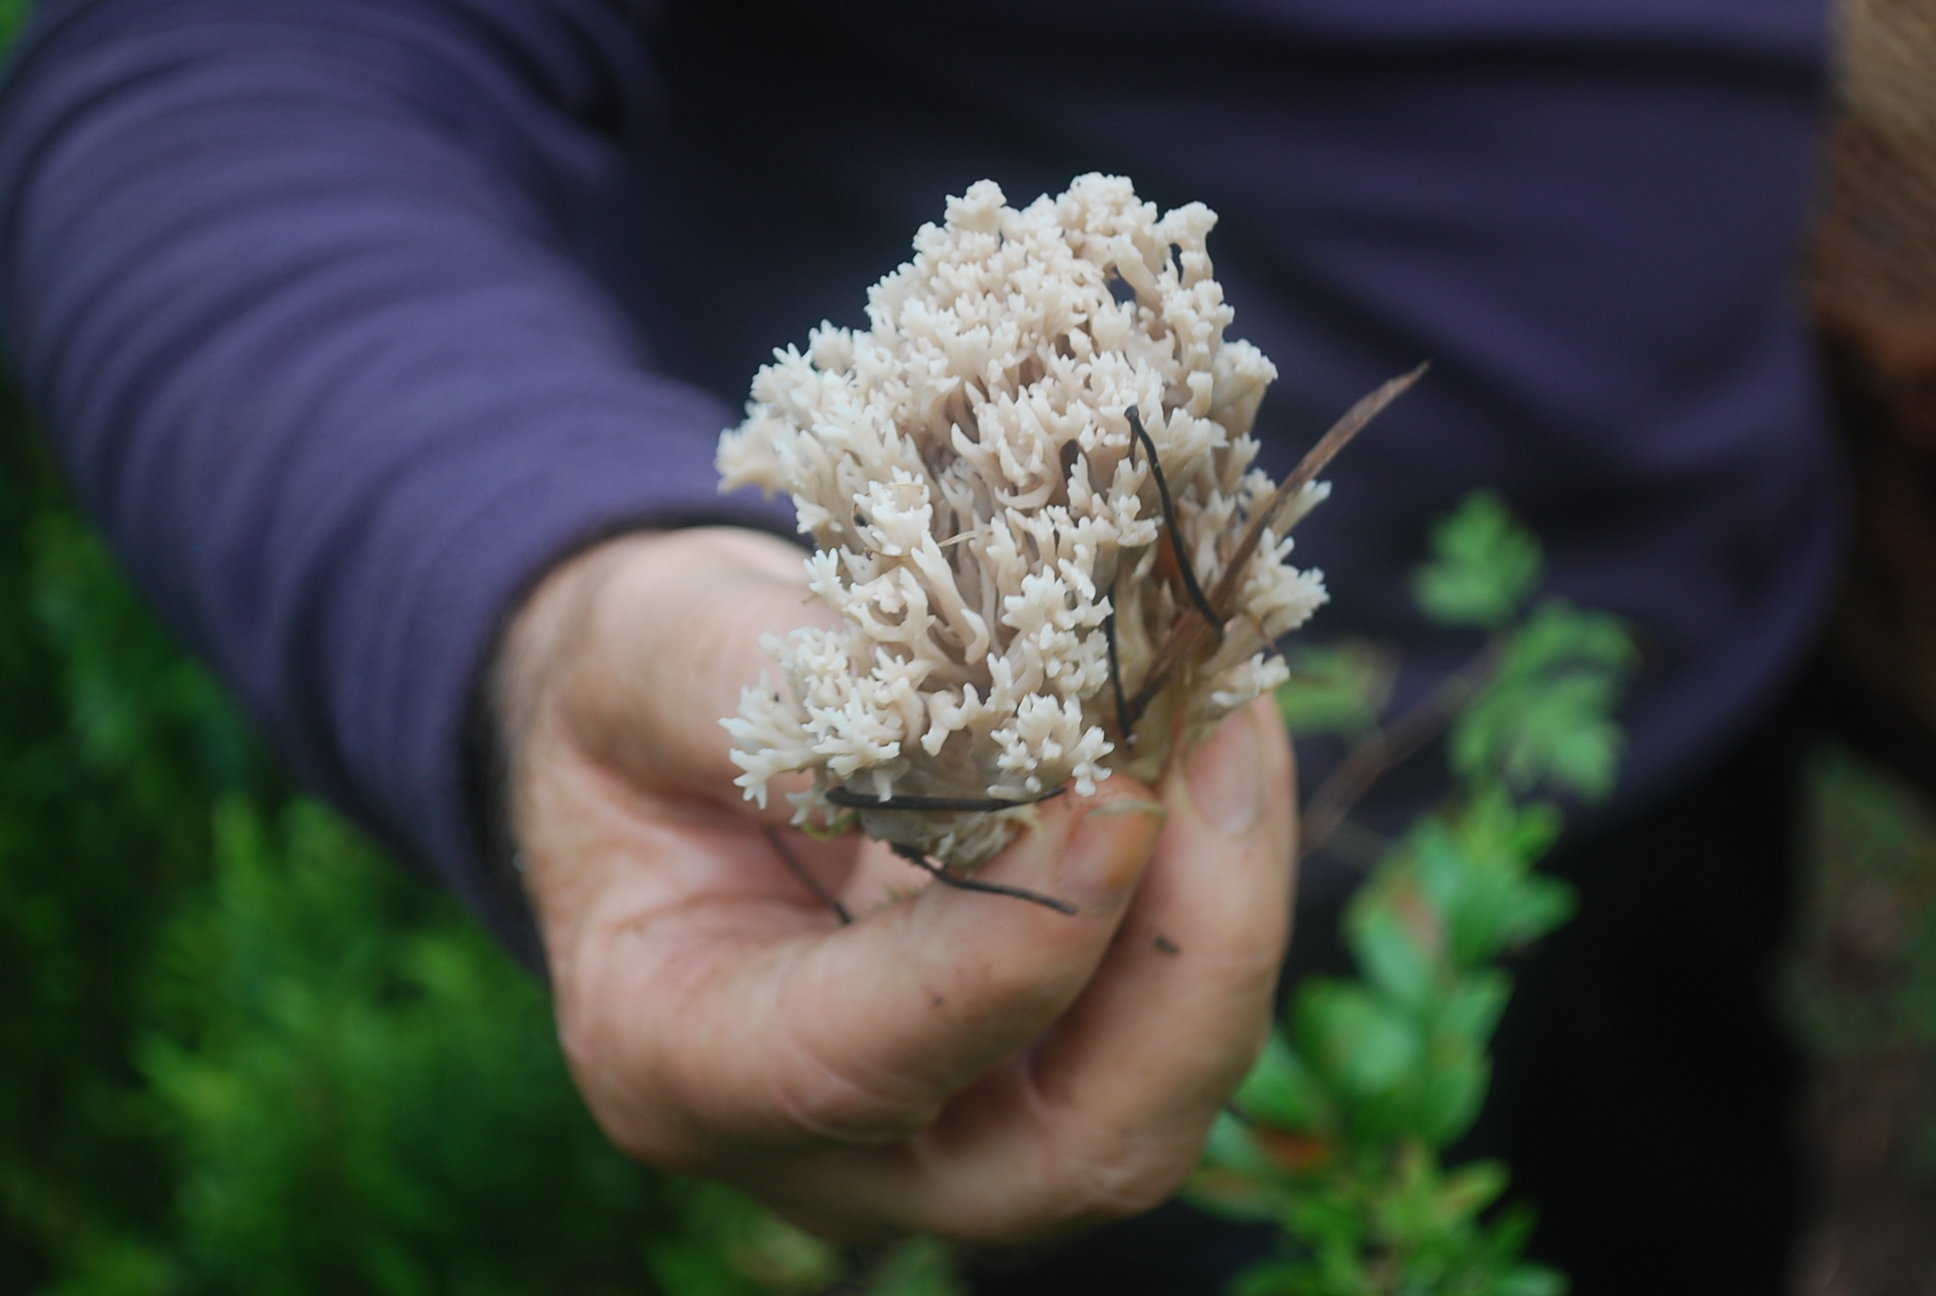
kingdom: Fungi
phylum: Basidiomycota
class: Agaricomycetes
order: Cantharellales
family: Hydnaceae
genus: Clavulina
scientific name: Clavulina coralloides
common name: Crested coral
